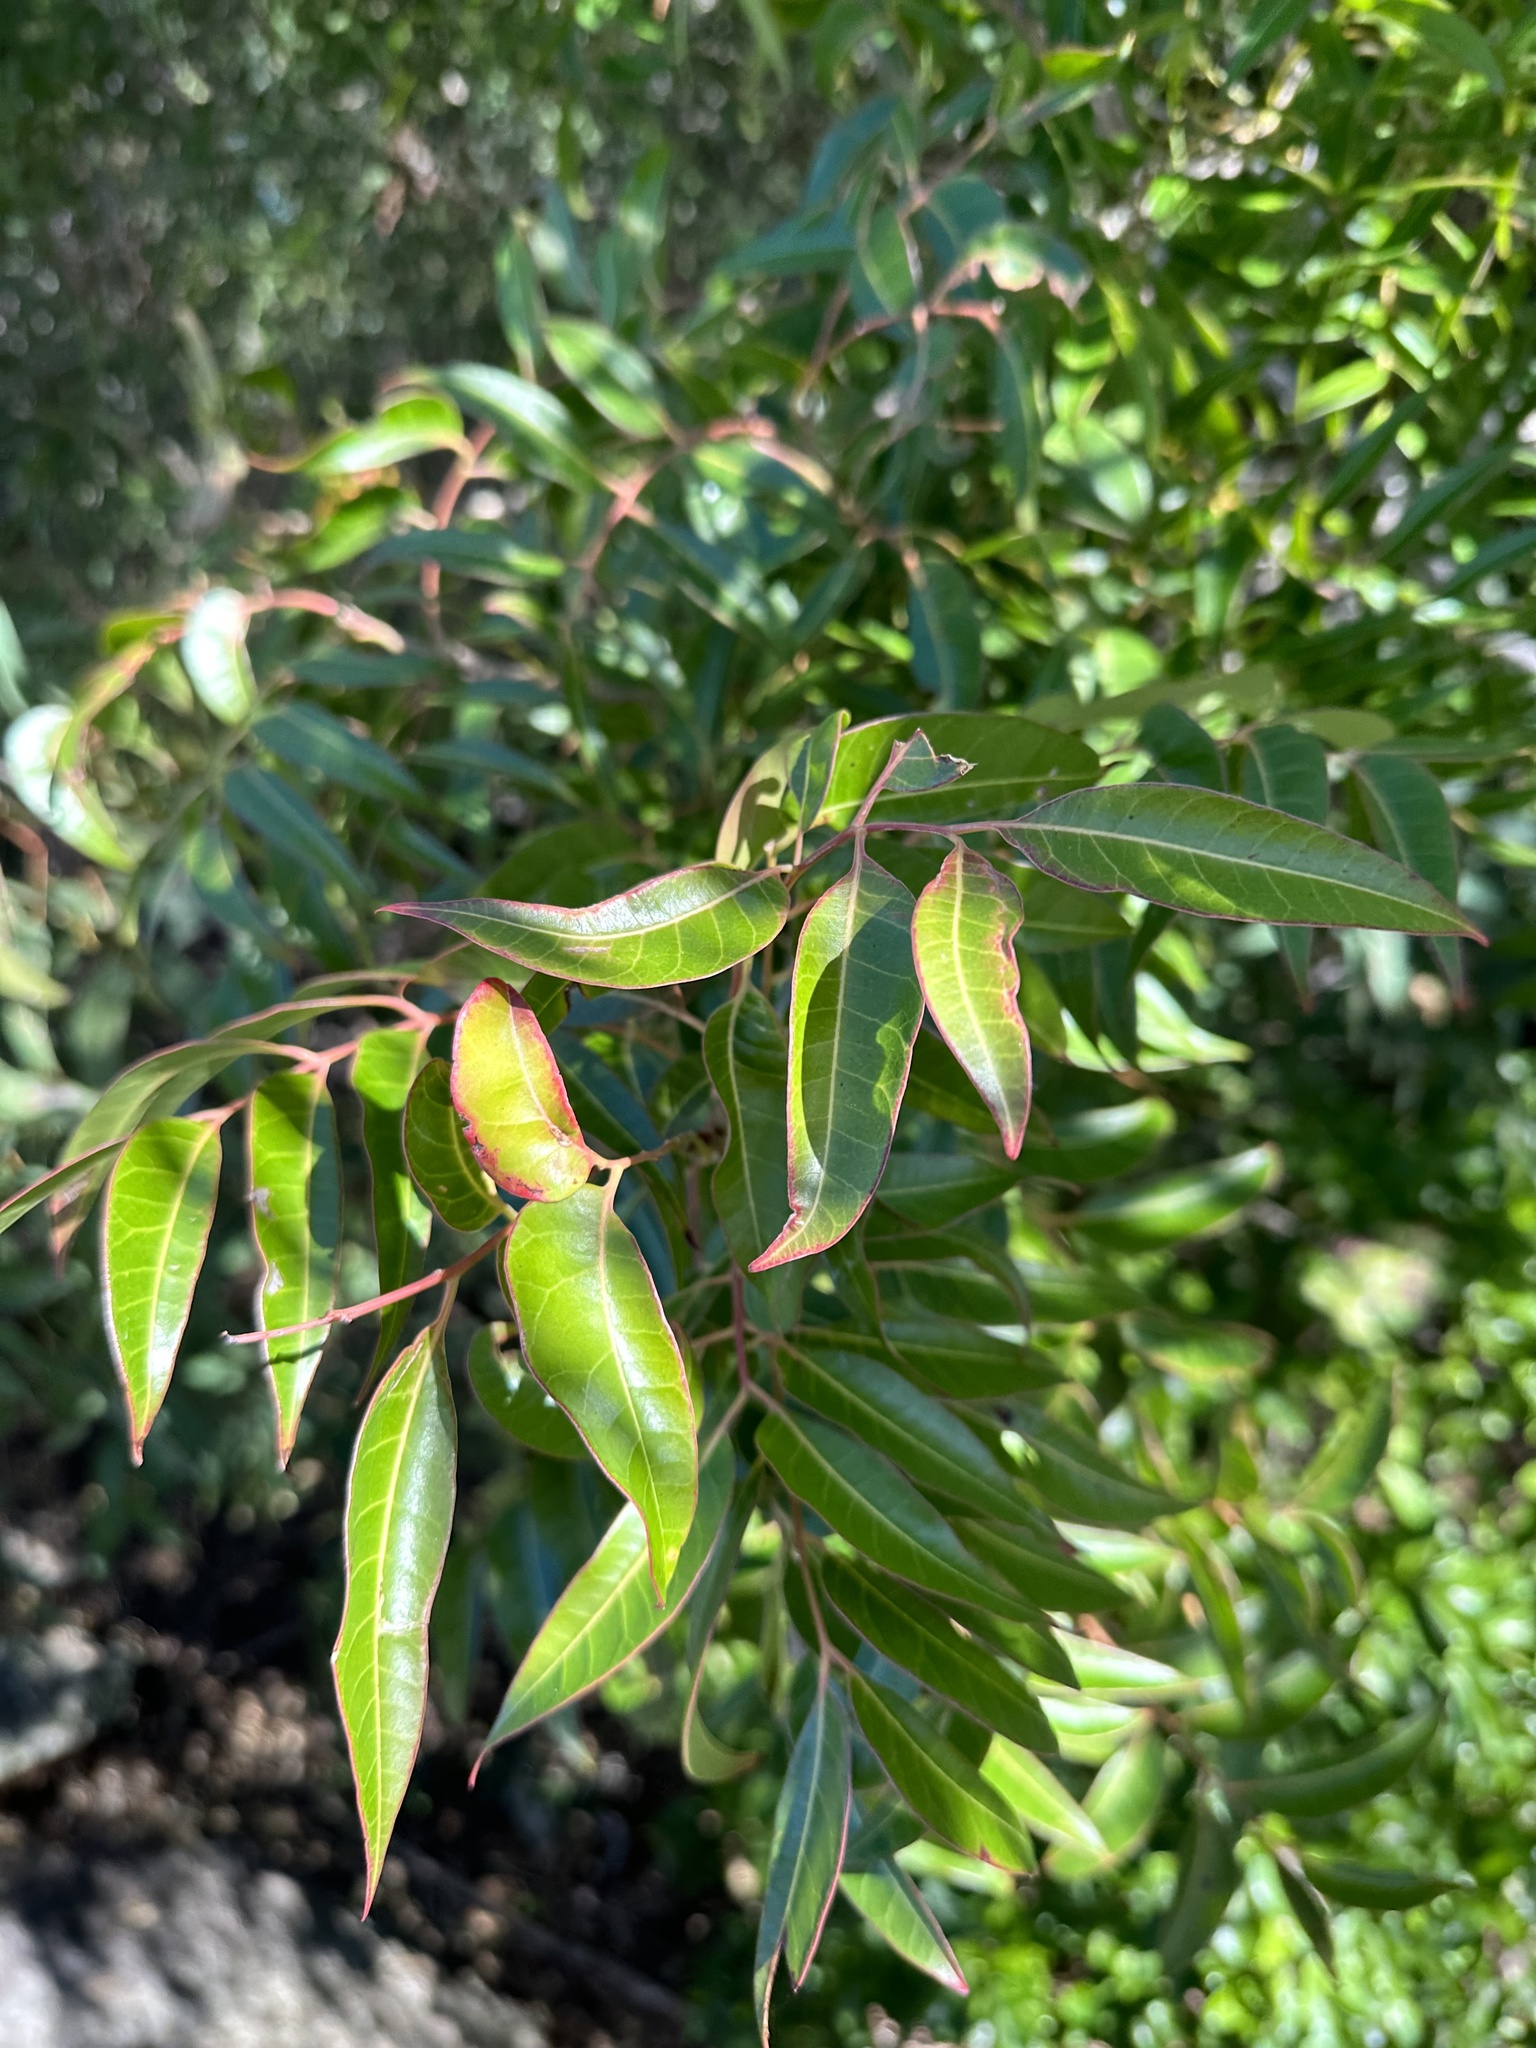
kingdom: Plantae
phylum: Tracheophyta
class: Magnoliopsida
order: Sapindales
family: Anacardiaceae
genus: Euroschinus
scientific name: Euroschinus falcatus
